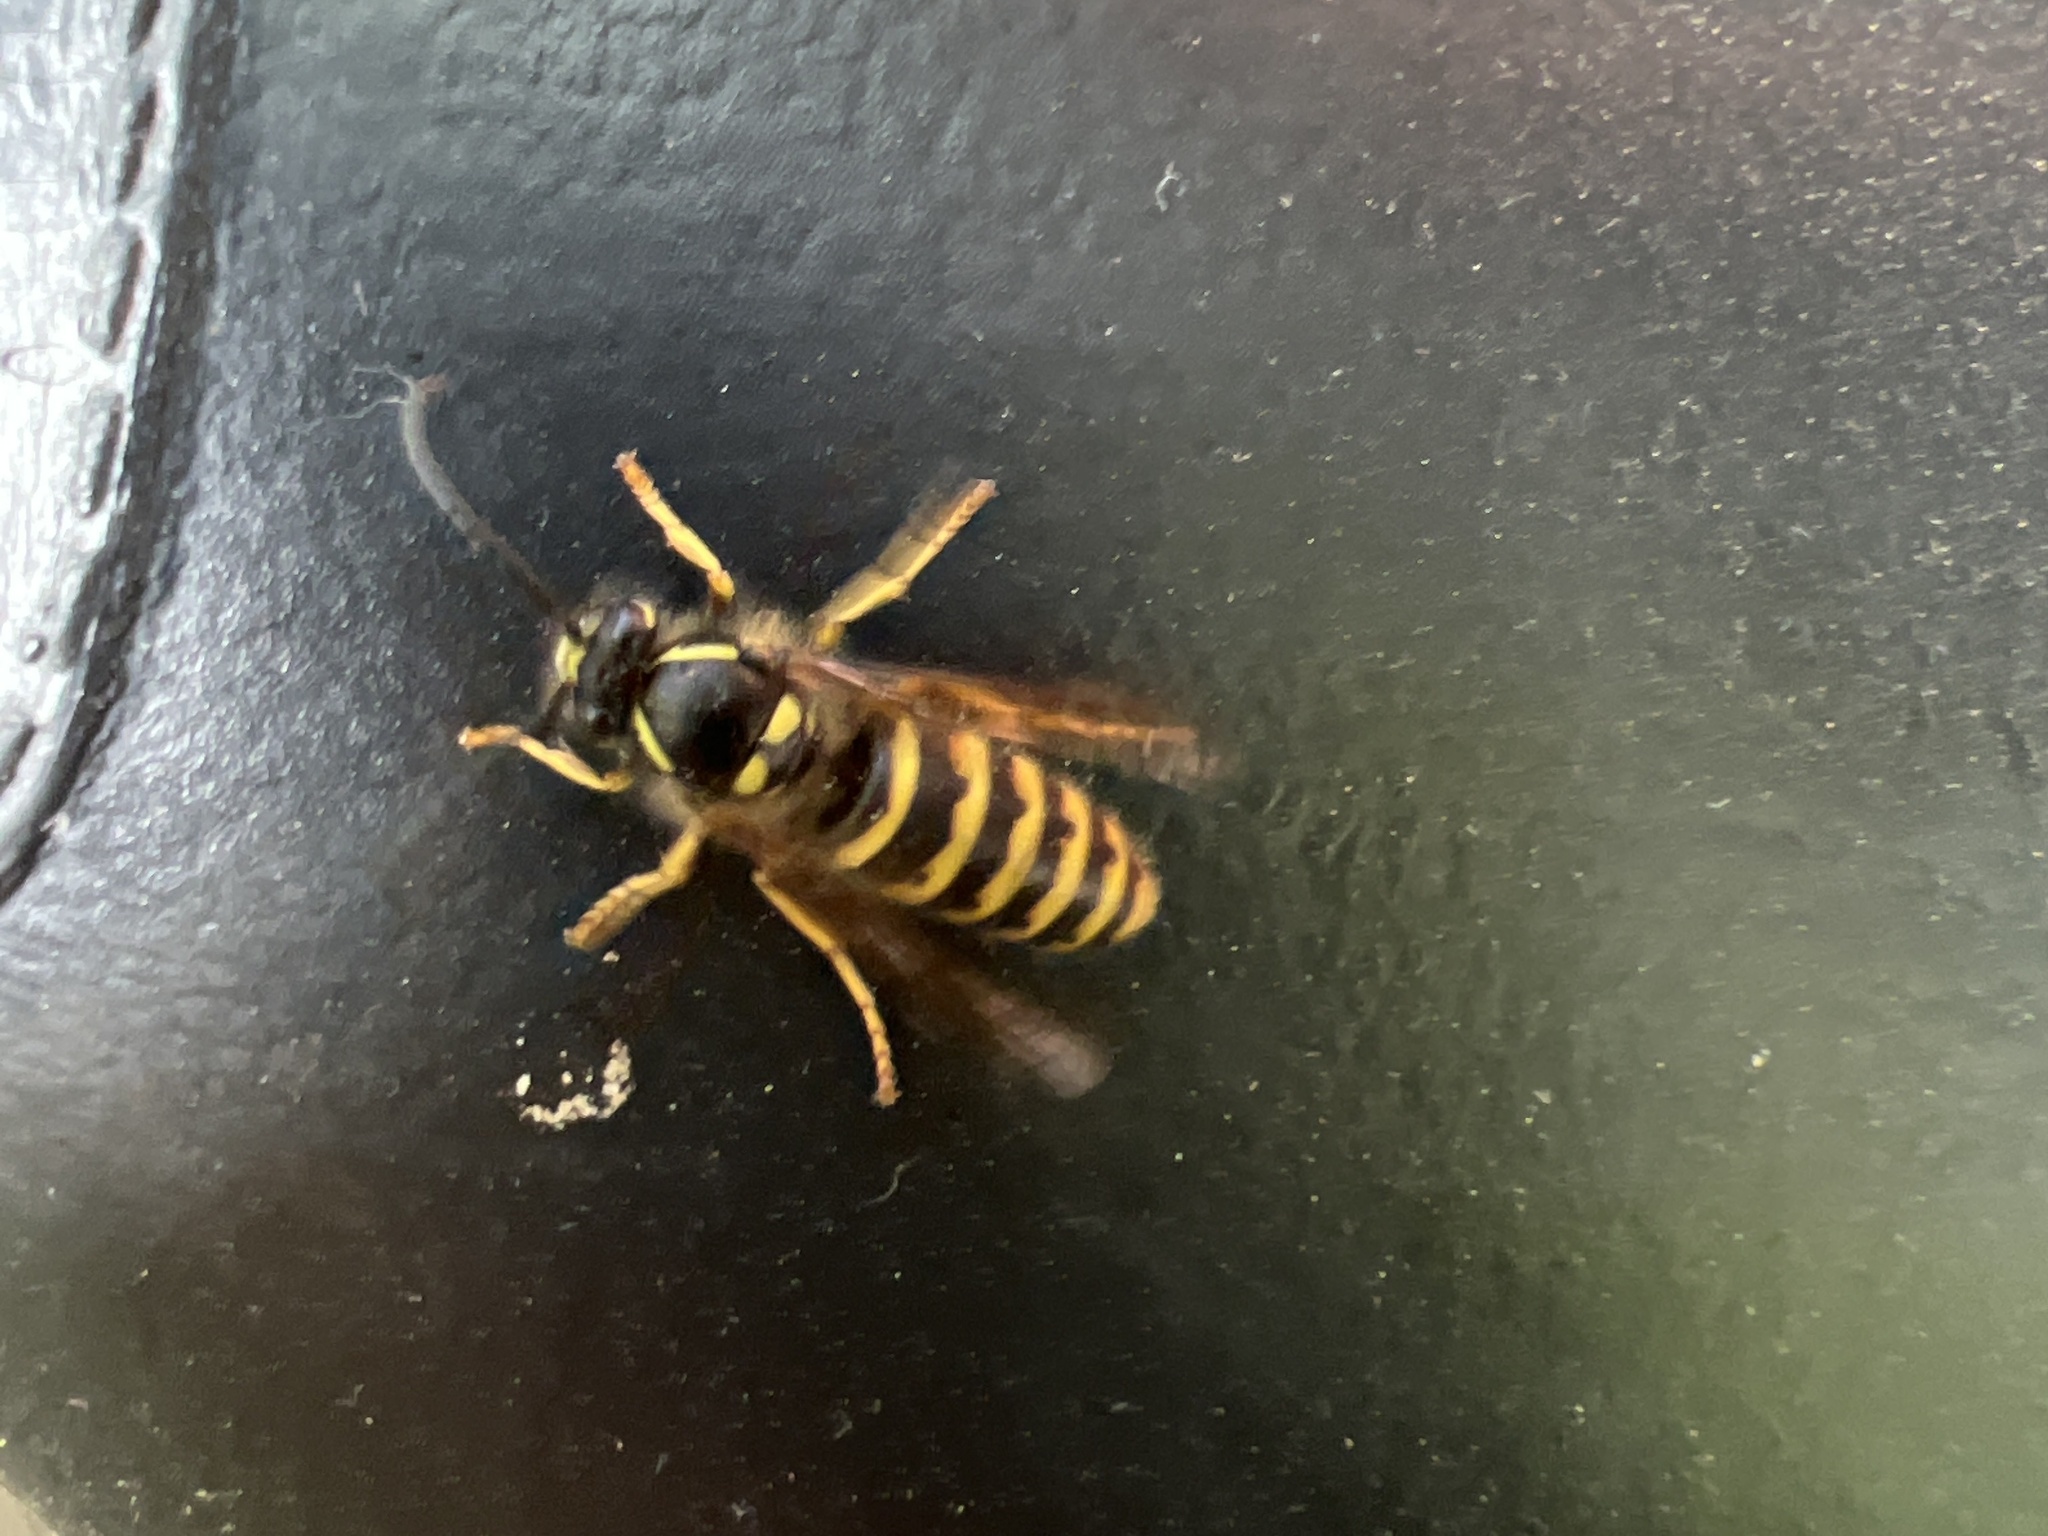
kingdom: Animalia
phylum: Arthropoda
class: Insecta
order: Hymenoptera
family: Vespidae
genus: Dolichovespula
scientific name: Dolichovespula saxonica
